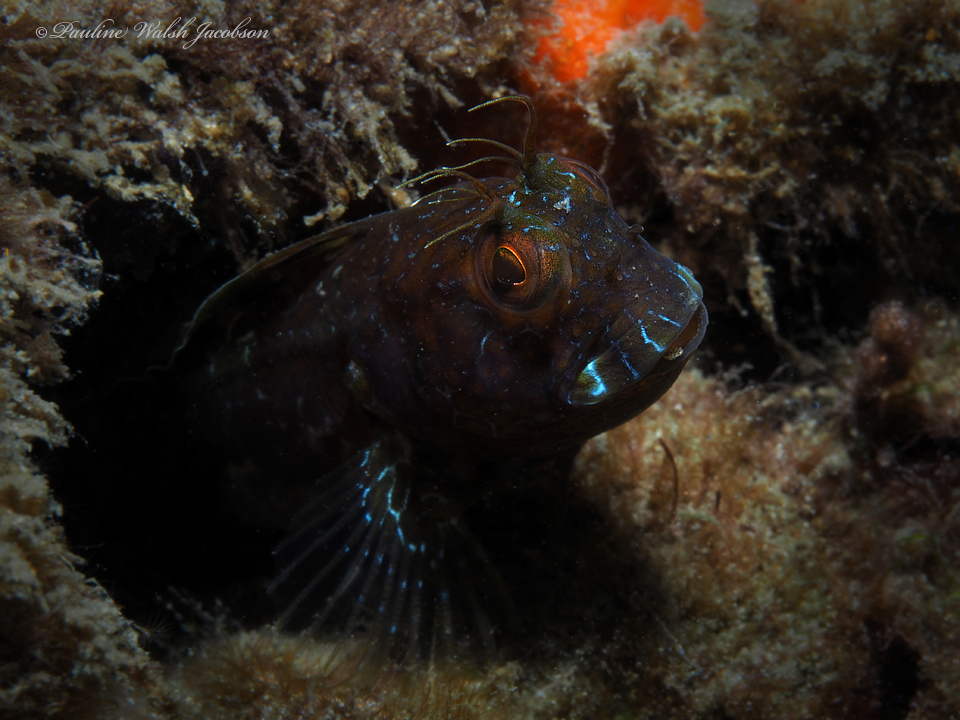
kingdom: Animalia
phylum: Chordata
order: Perciformes
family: Blenniidae
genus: Parablennius
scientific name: Parablennius marmoreus
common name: Seaweed blenny
